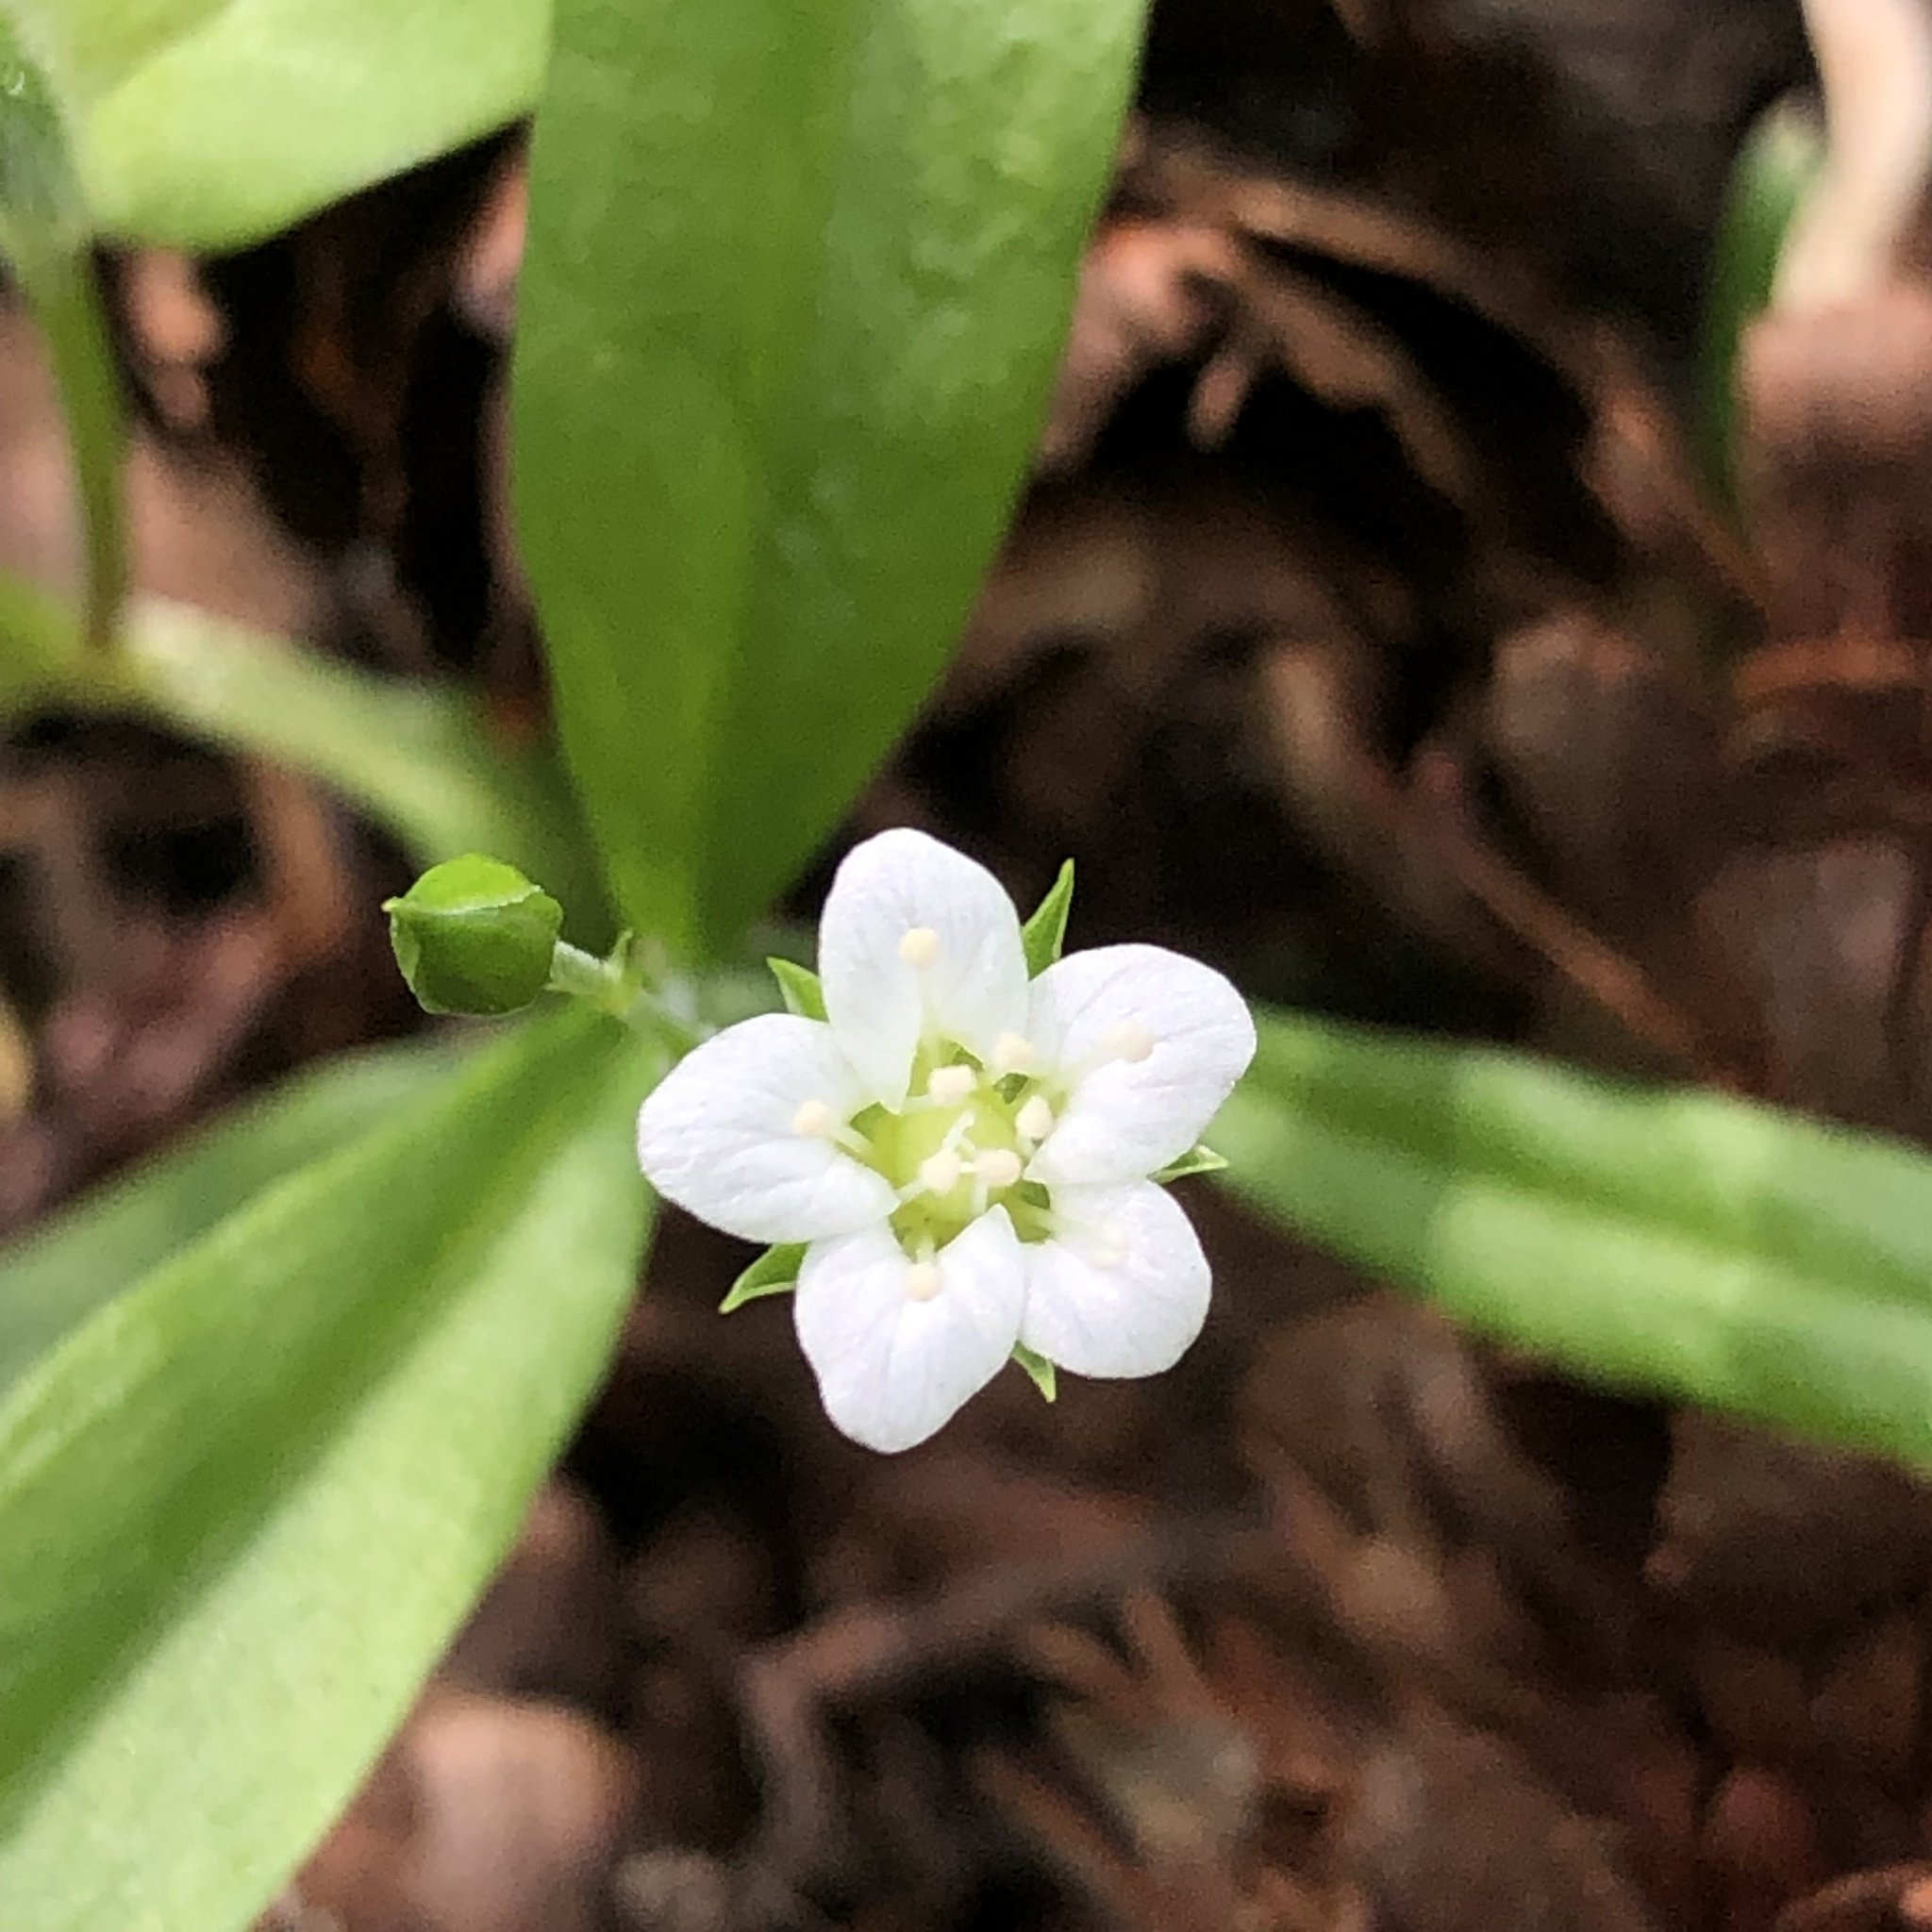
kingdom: Plantae
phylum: Tracheophyta
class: Magnoliopsida
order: Caryophyllales
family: Caryophyllaceae
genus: Moehringia
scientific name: Moehringia macrophylla
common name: Big-leaf sandwort
